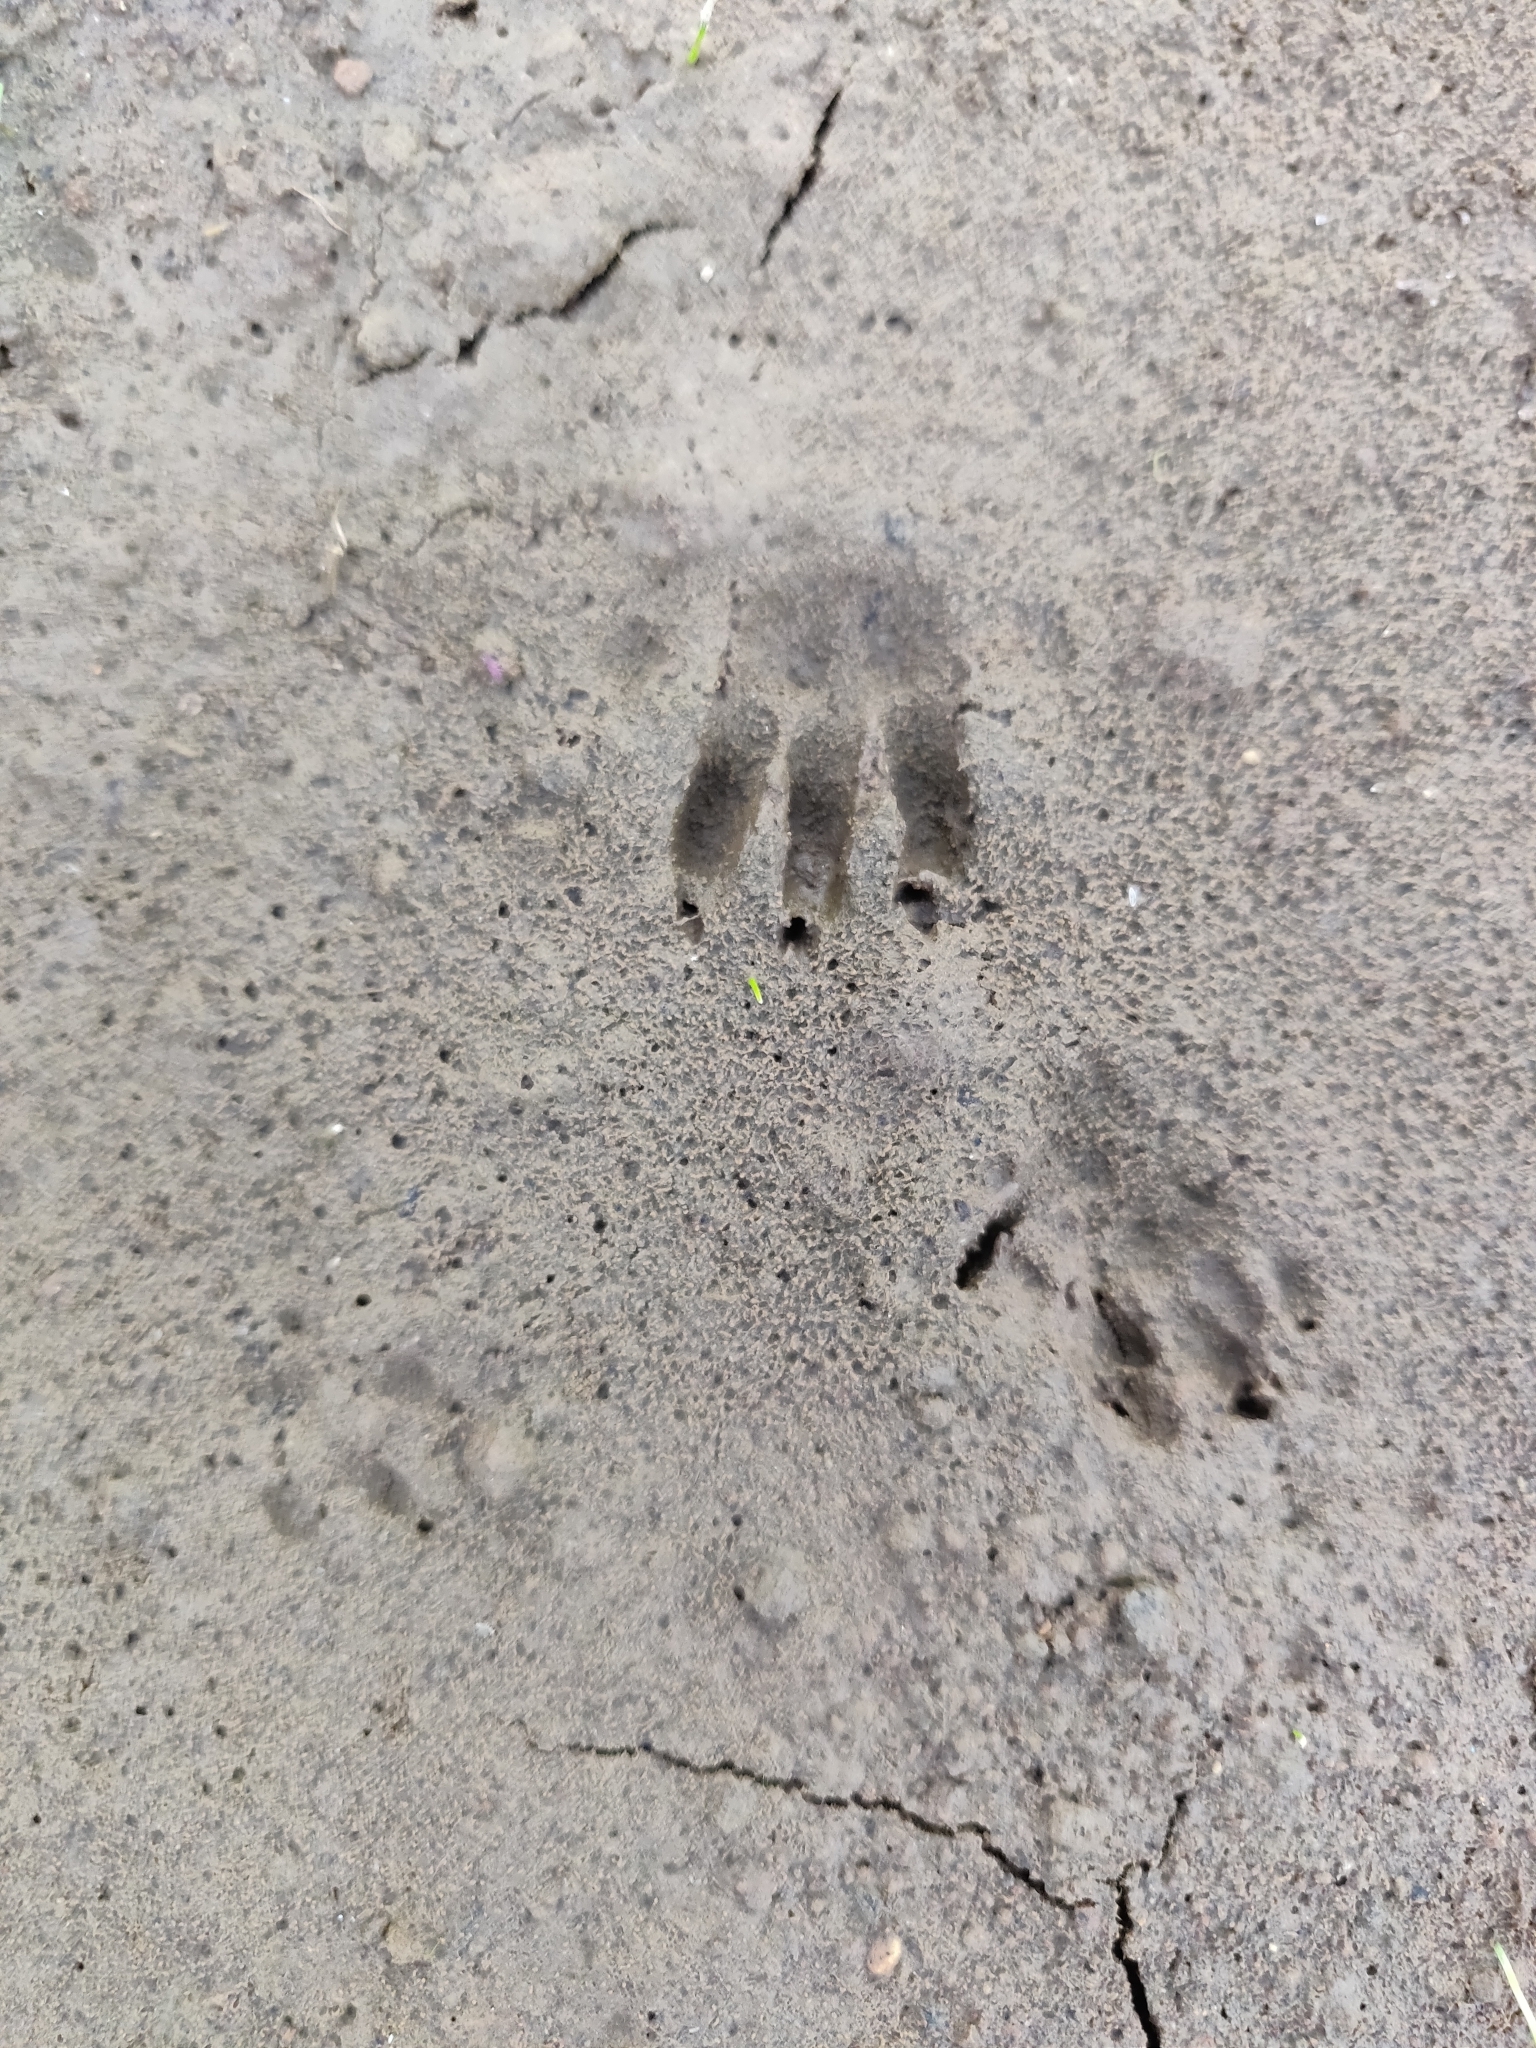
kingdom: Animalia
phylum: Chordata
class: Mammalia
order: Diprotodontia
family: Phalangeridae
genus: Trichosurus
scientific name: Trichosurus vulpecula
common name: Common brushtail
